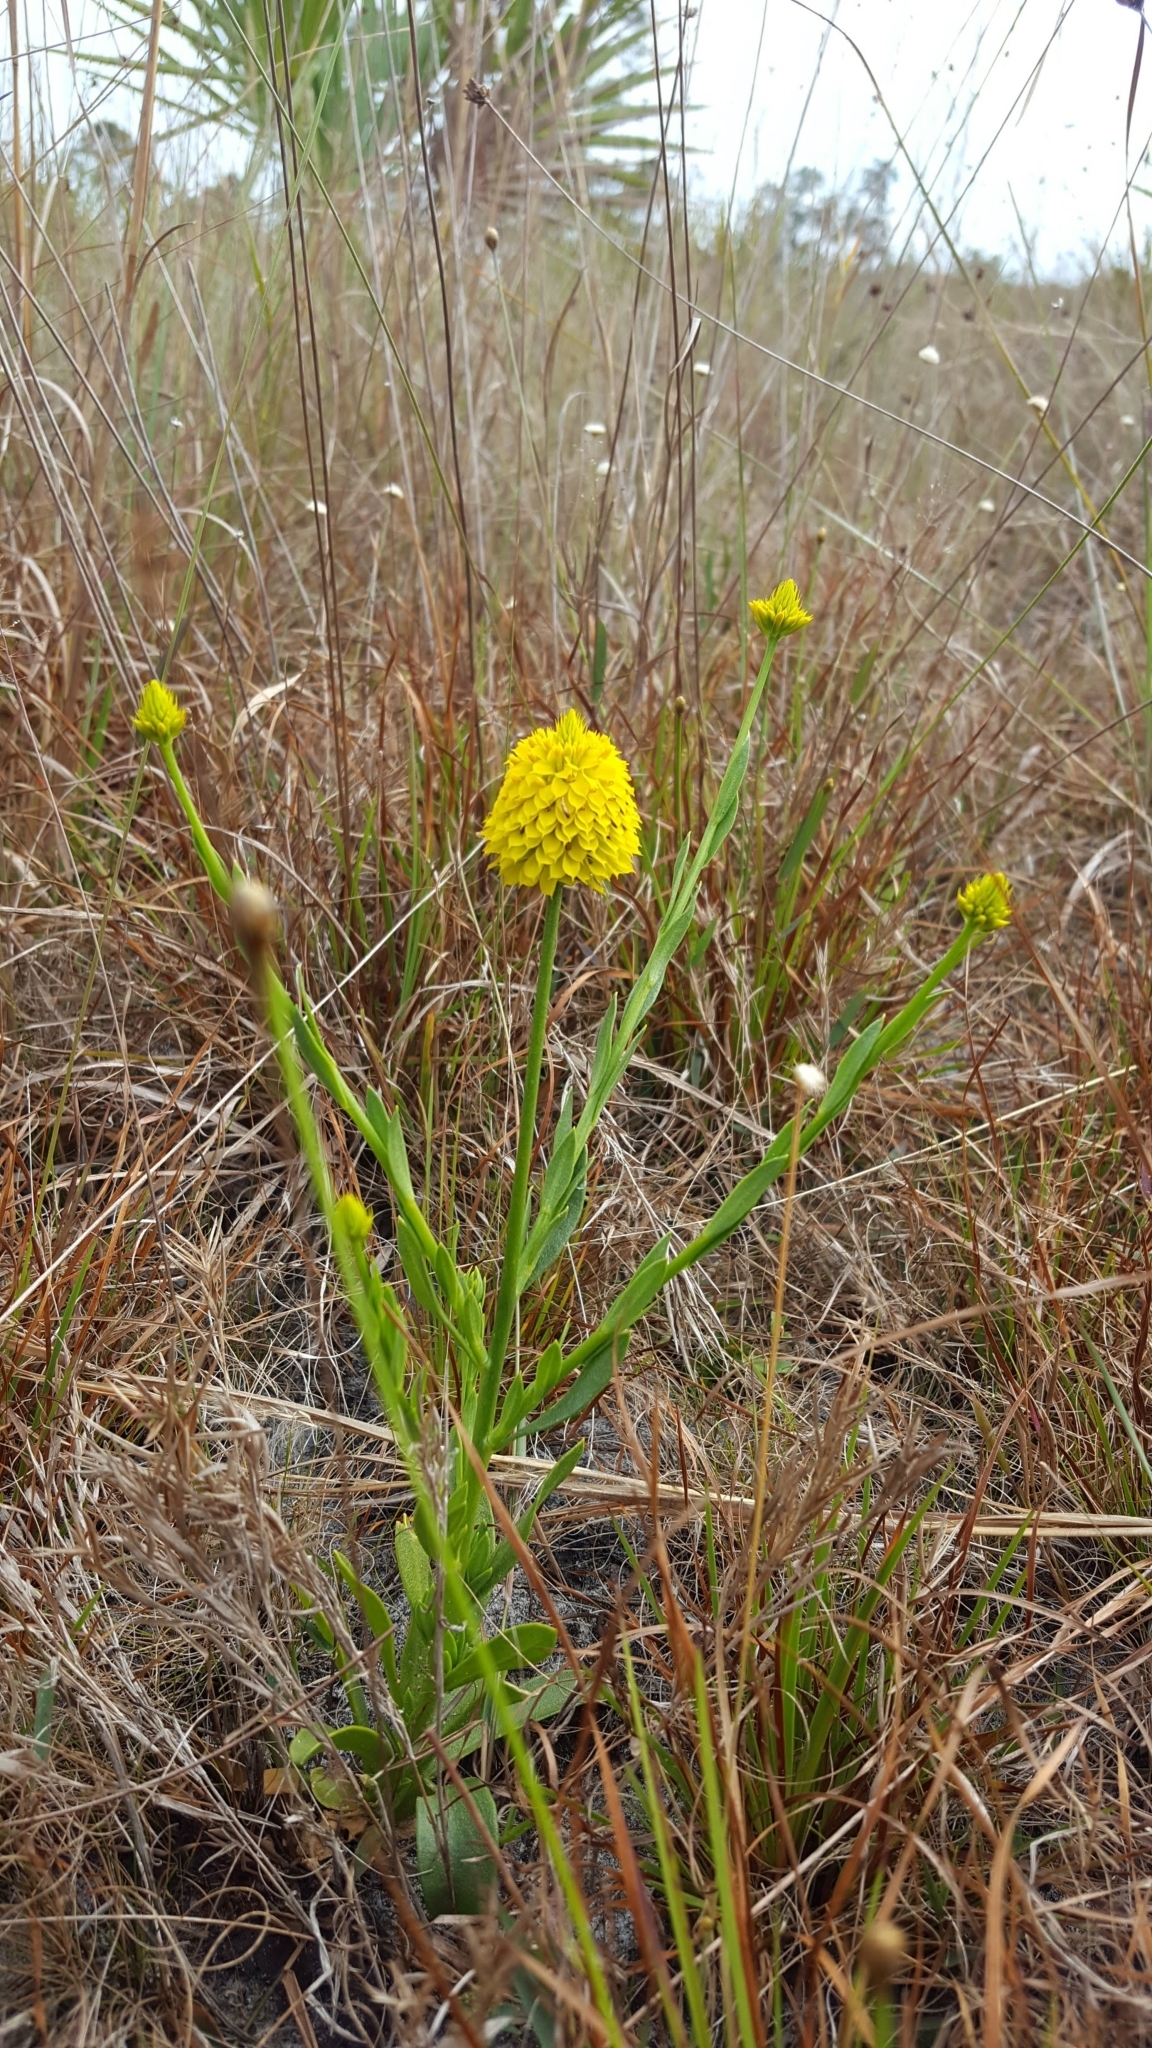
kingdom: Plantae
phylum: Tracheophyta
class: Magnoliopsida
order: Fabales
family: Polygalaceae
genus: Polygala
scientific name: Polygala rugelii
